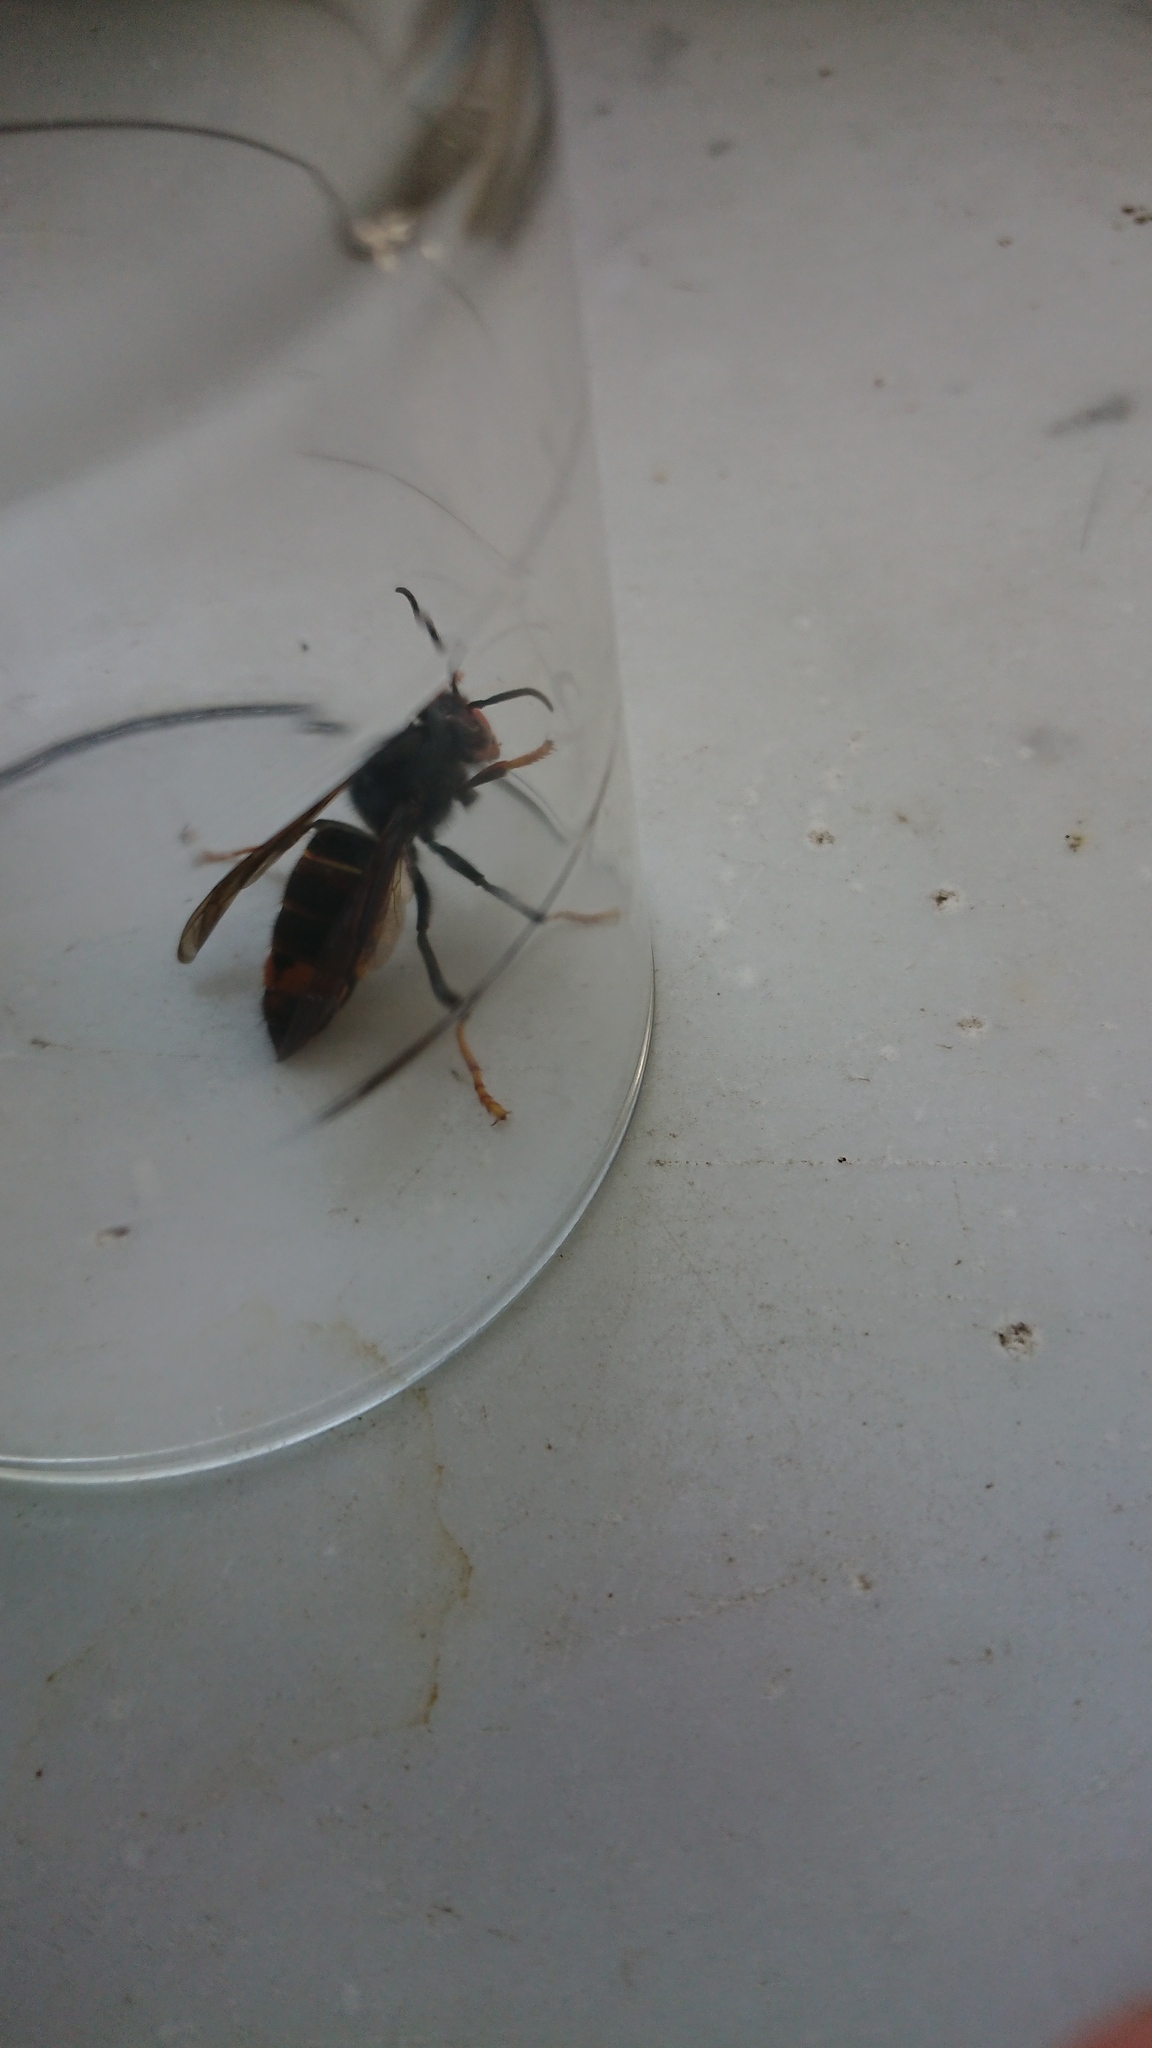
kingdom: Animalia
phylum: Arthropoda
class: Insecta
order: Hymenoptera
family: Vespidae
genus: Vespa
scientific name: Vespa velutina
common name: Asian hornet
